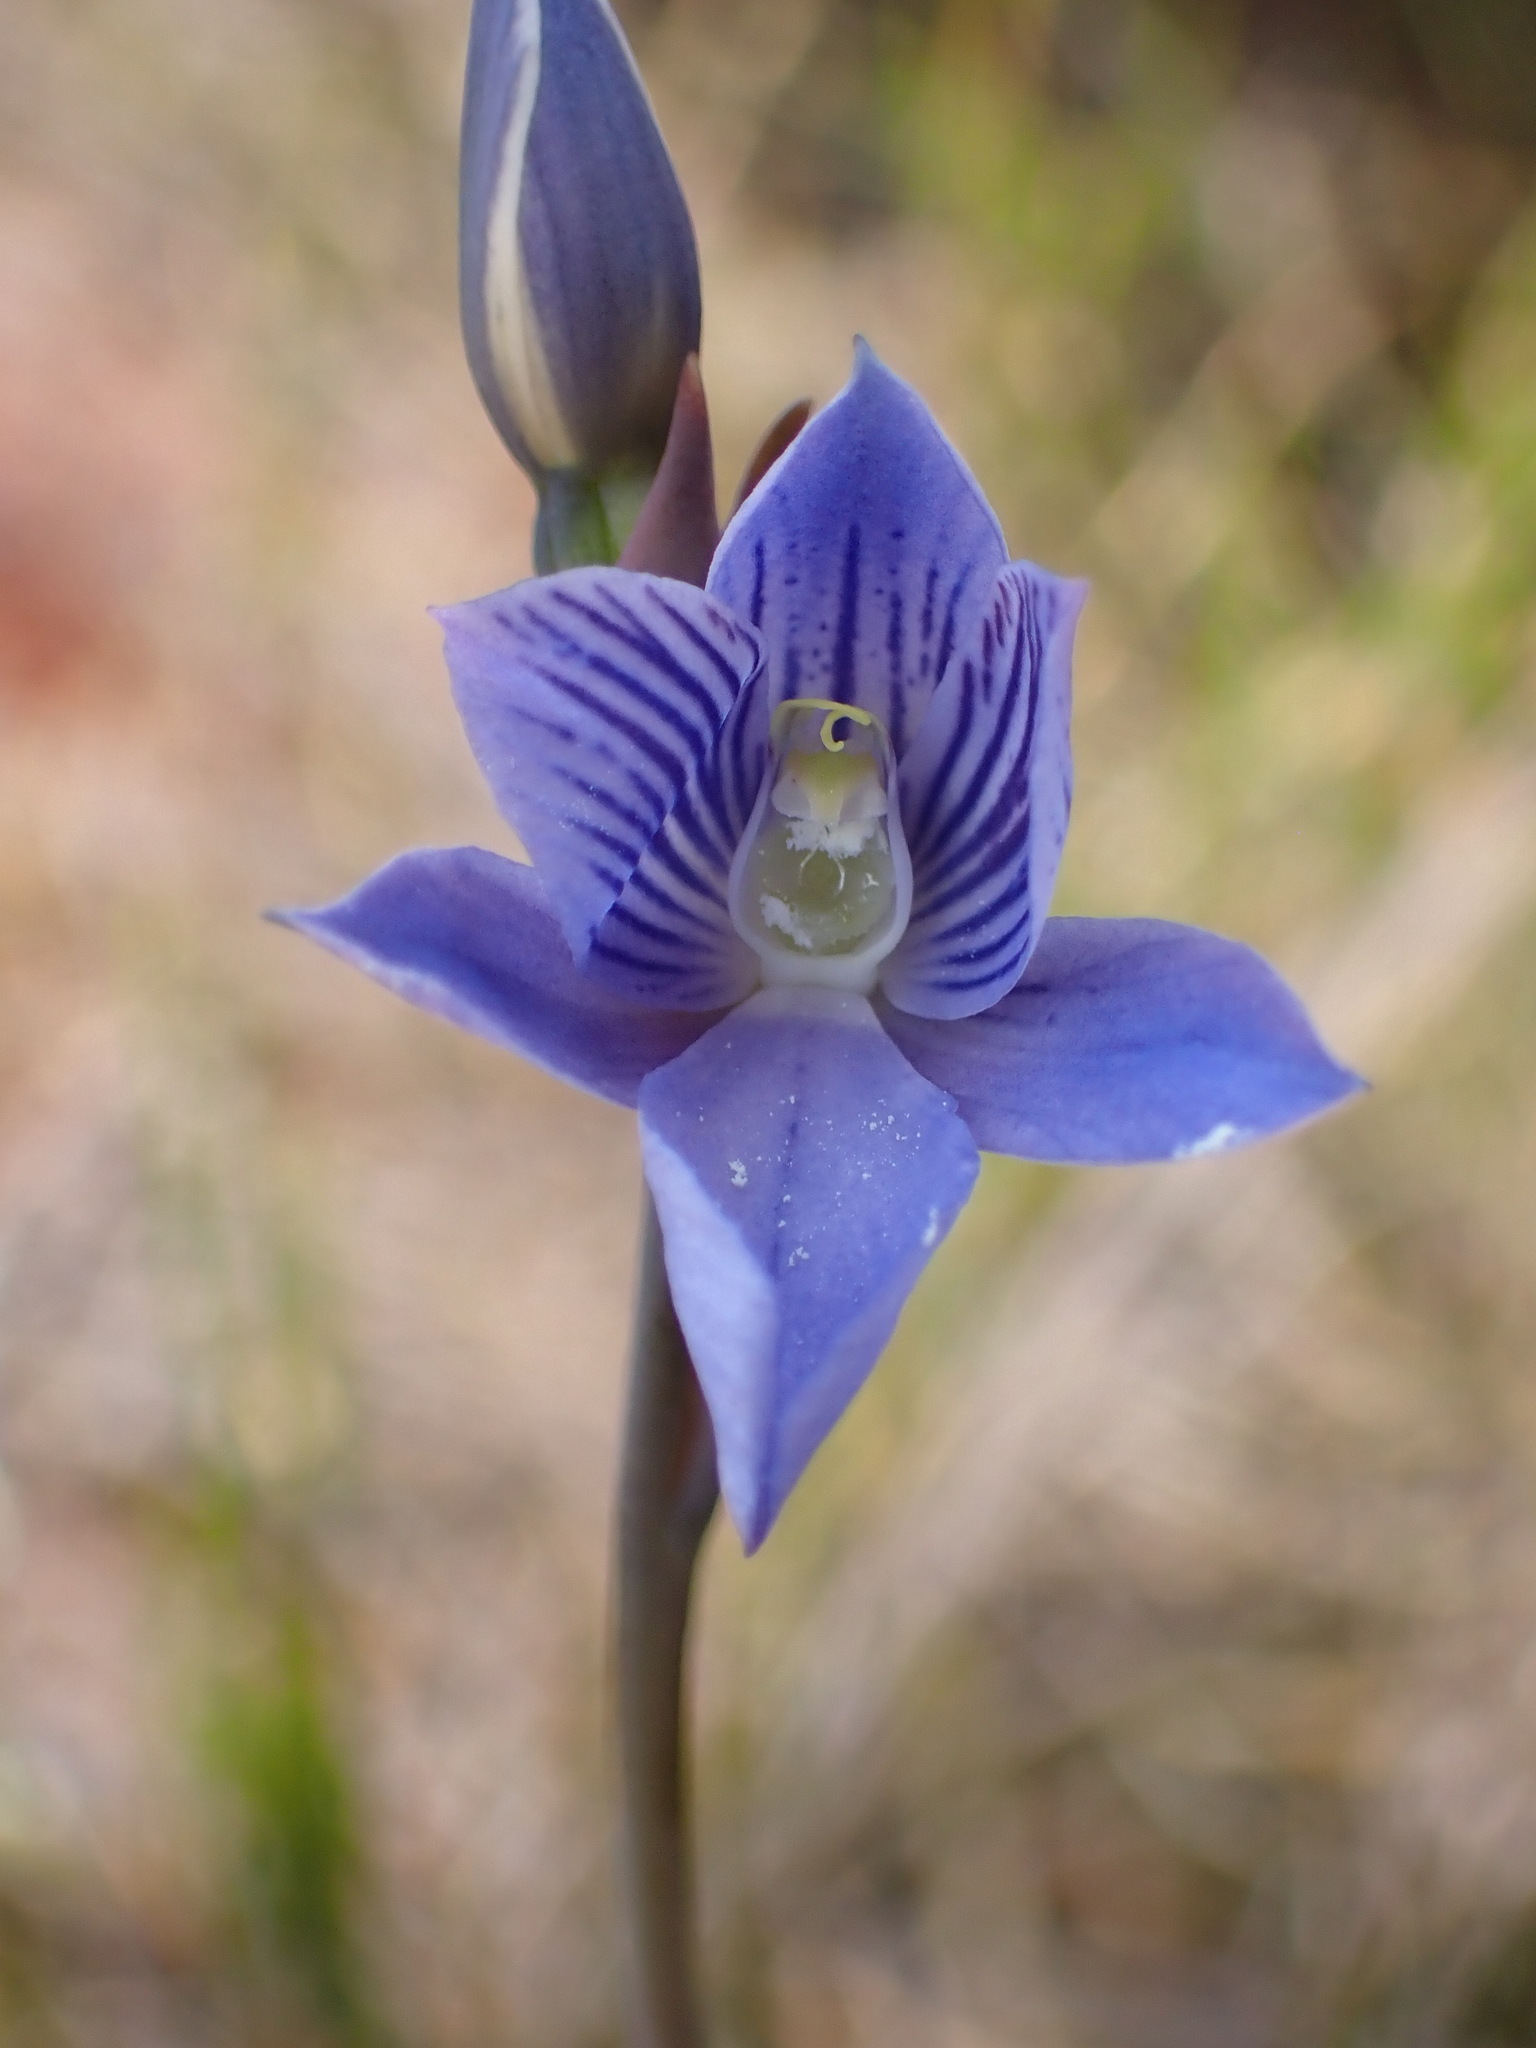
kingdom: Plantae
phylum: Tracheophyta
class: Liliopsida
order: Asparagales
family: Orchidaceae
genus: Thelymitra
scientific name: Thelymitra cyanea
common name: Blue sun-orchid
